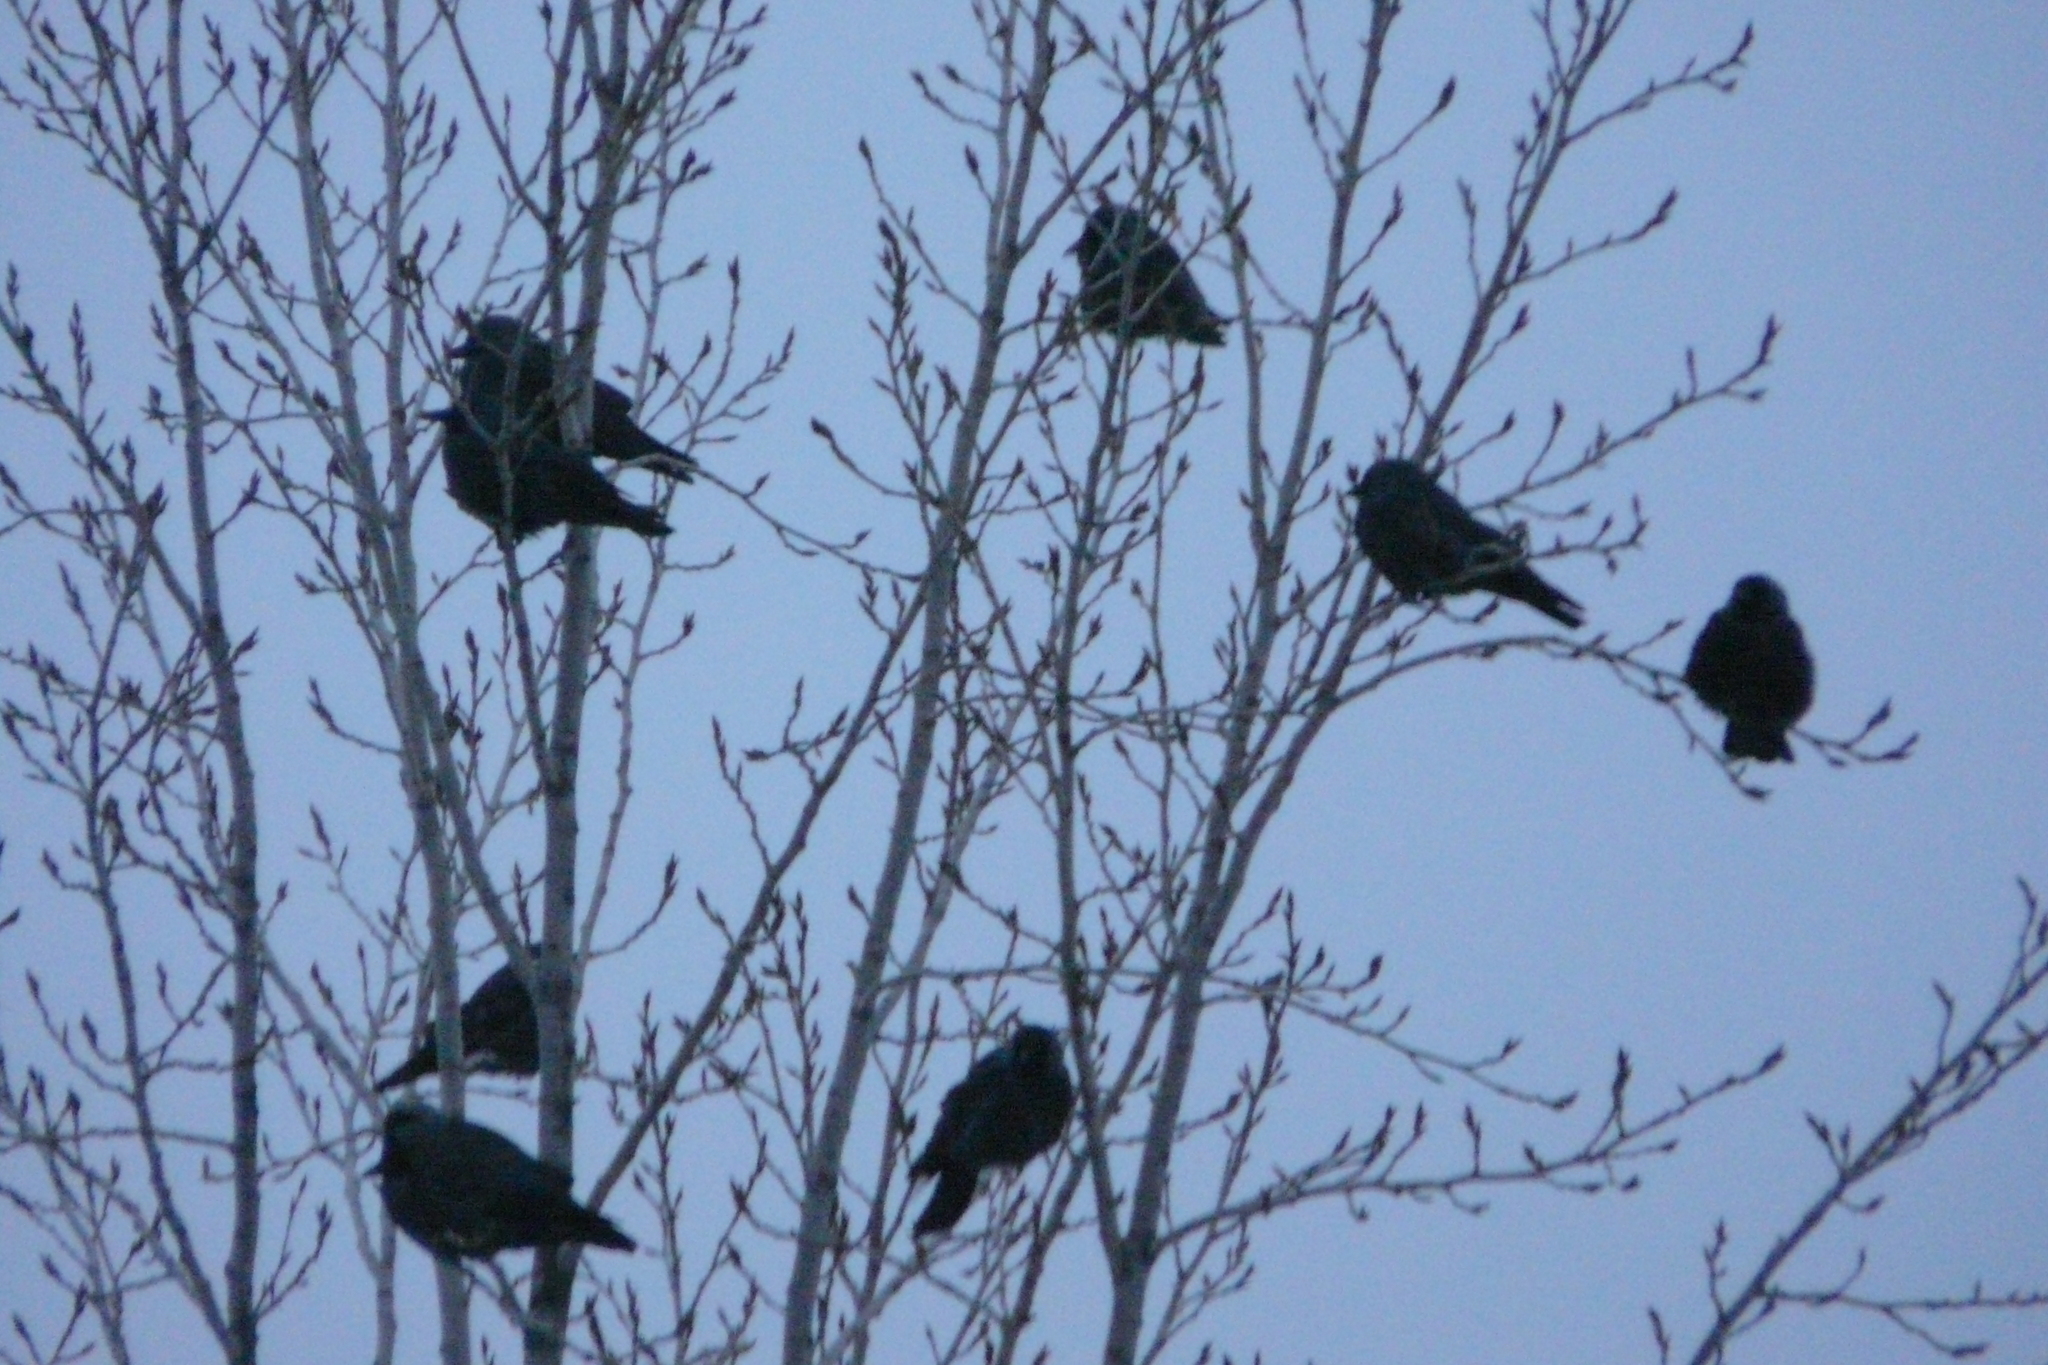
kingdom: Animalia
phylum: Chordata
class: Aves
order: Passeriformes
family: Corvidae
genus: Coloeus
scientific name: Coloeus monedula
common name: Western jackdaw
